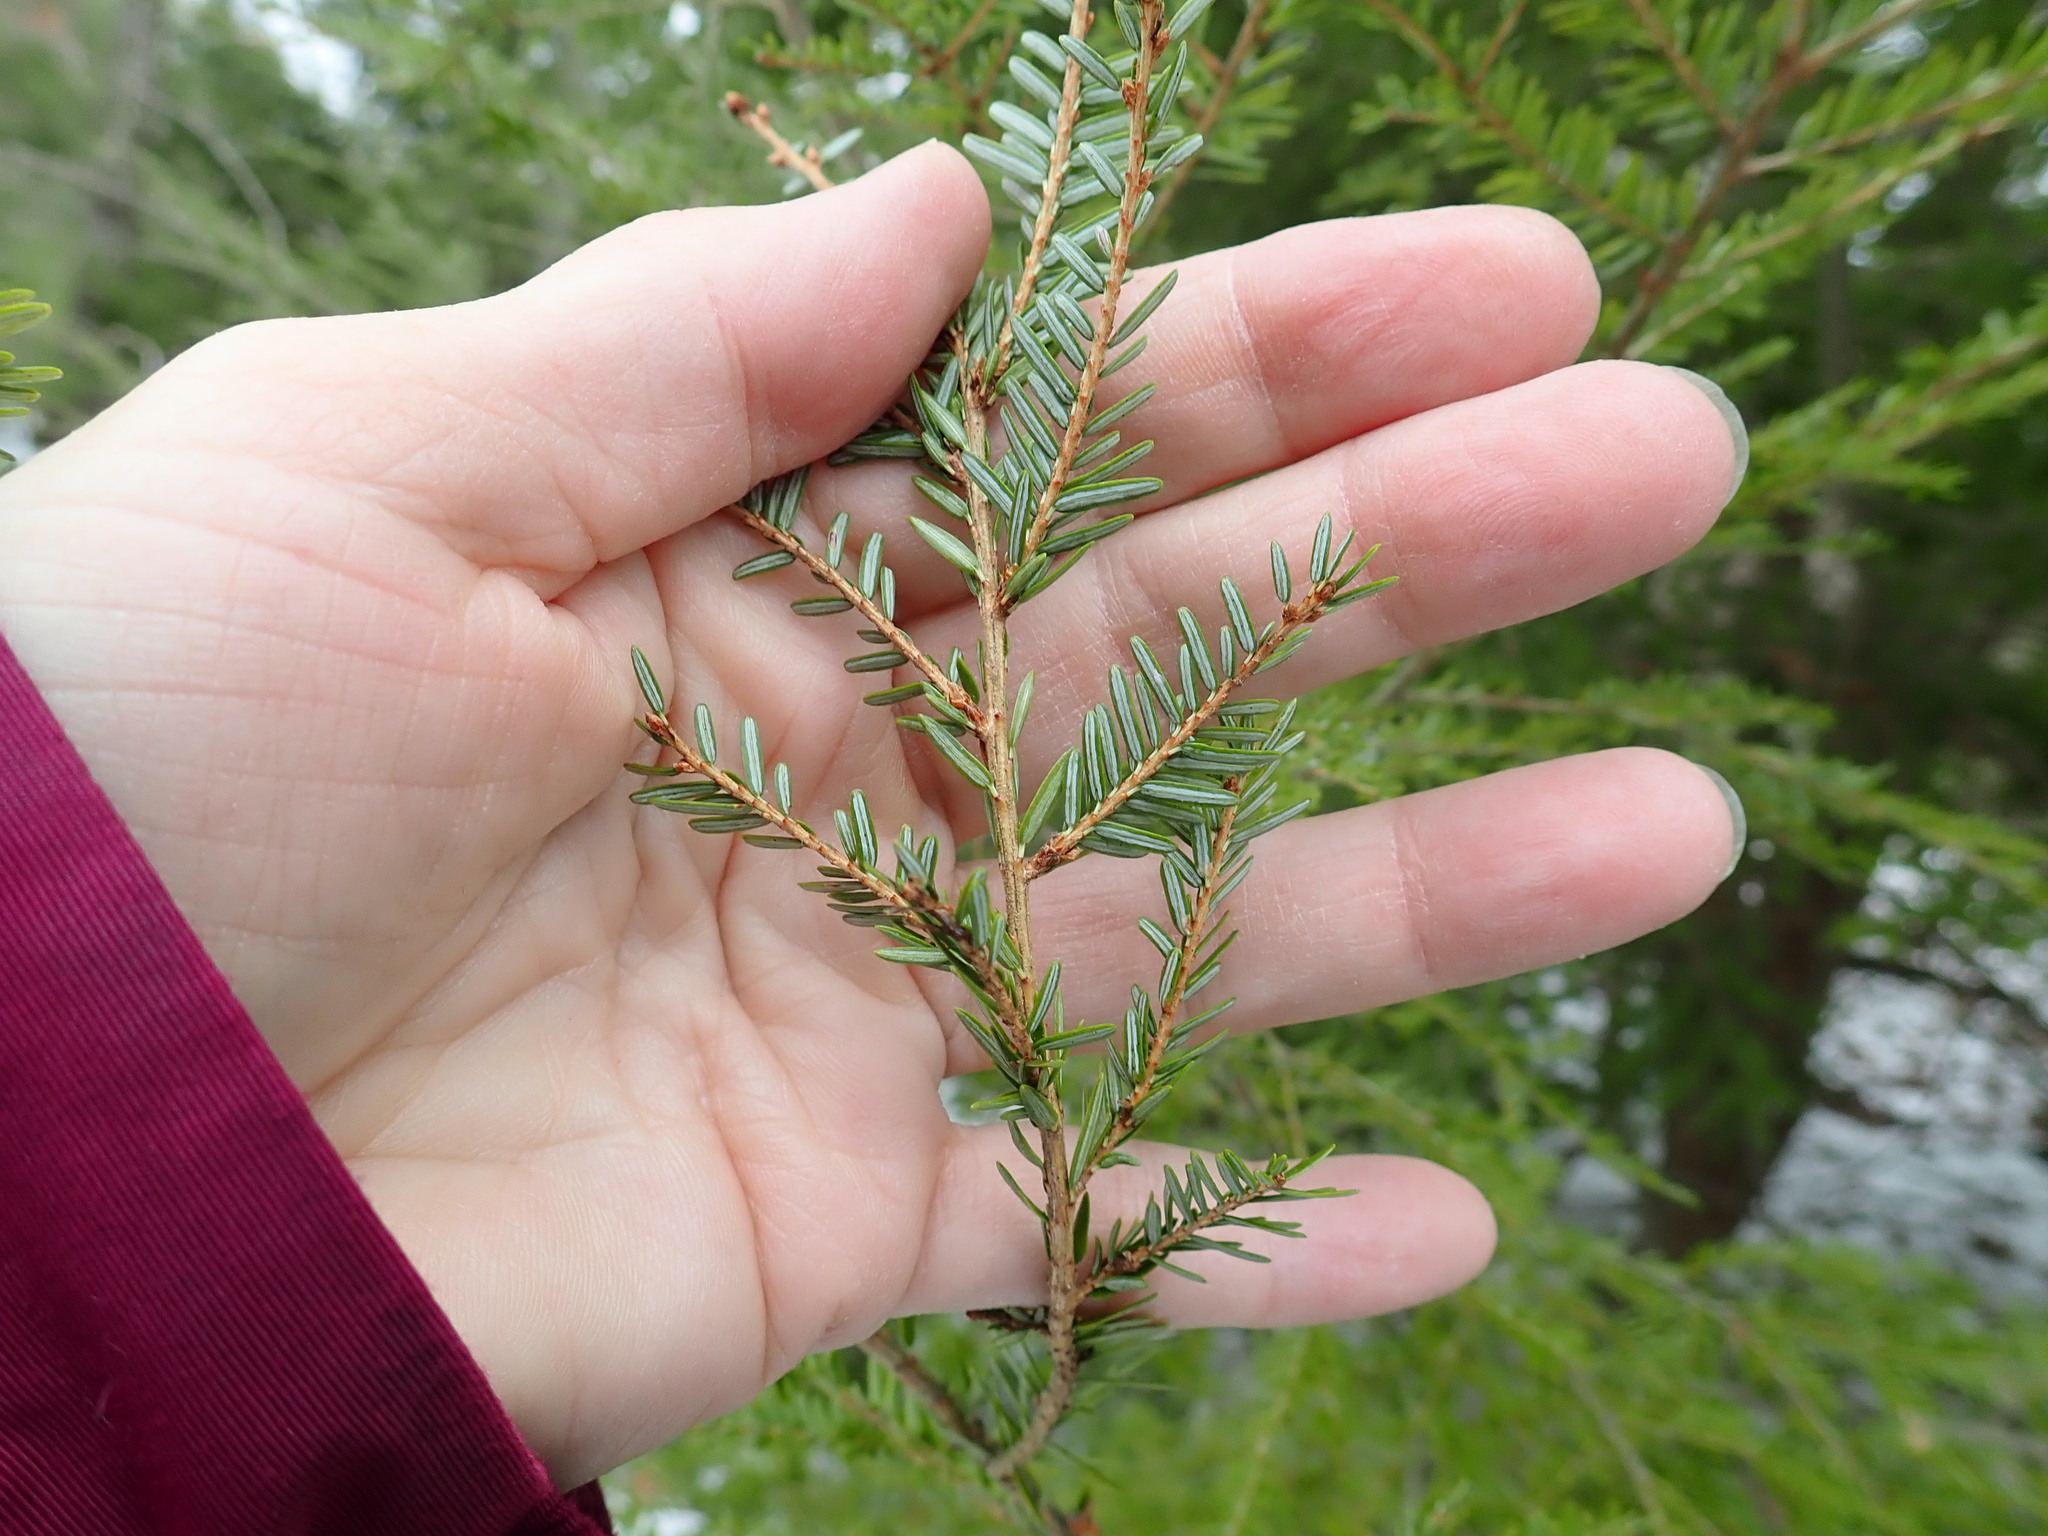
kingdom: Plantae
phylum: Tracheophyta
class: Pinopsida
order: Pinales
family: Pinaceae
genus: Tsuga
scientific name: Tsuga canadensis
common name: Eastern hemlock
